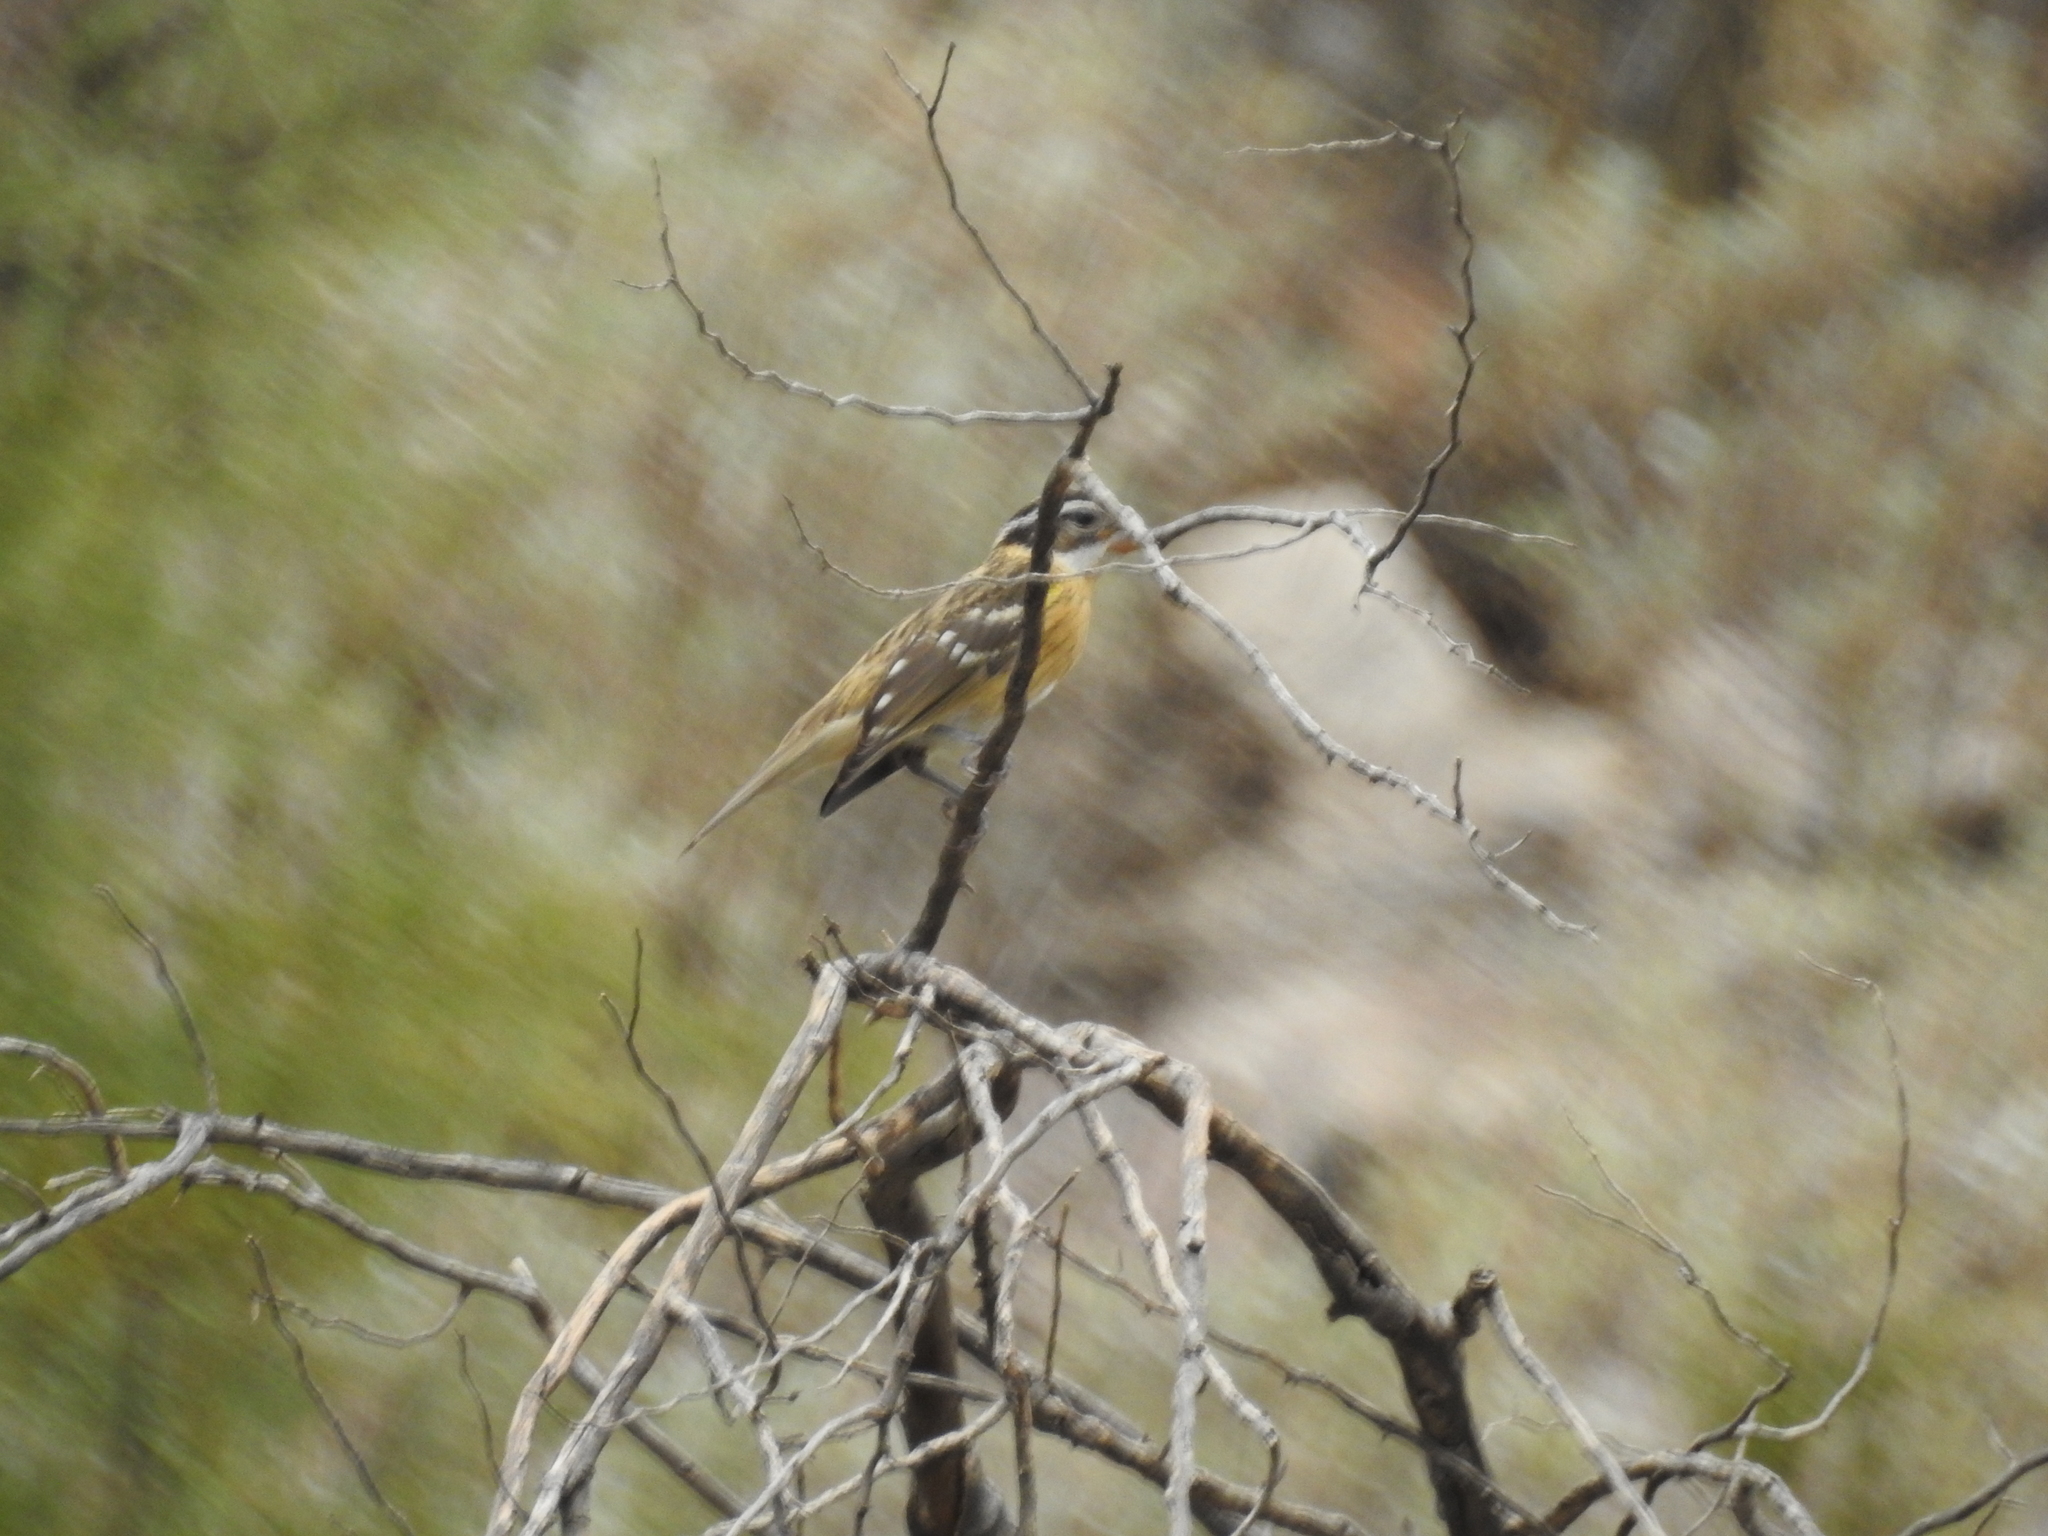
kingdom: Animalia
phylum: Chordata
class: Aves
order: Passeriformes
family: Cardinalidae
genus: Pheucticus
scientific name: Pheucticus melanocephalus
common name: Black-headed grosbeak
